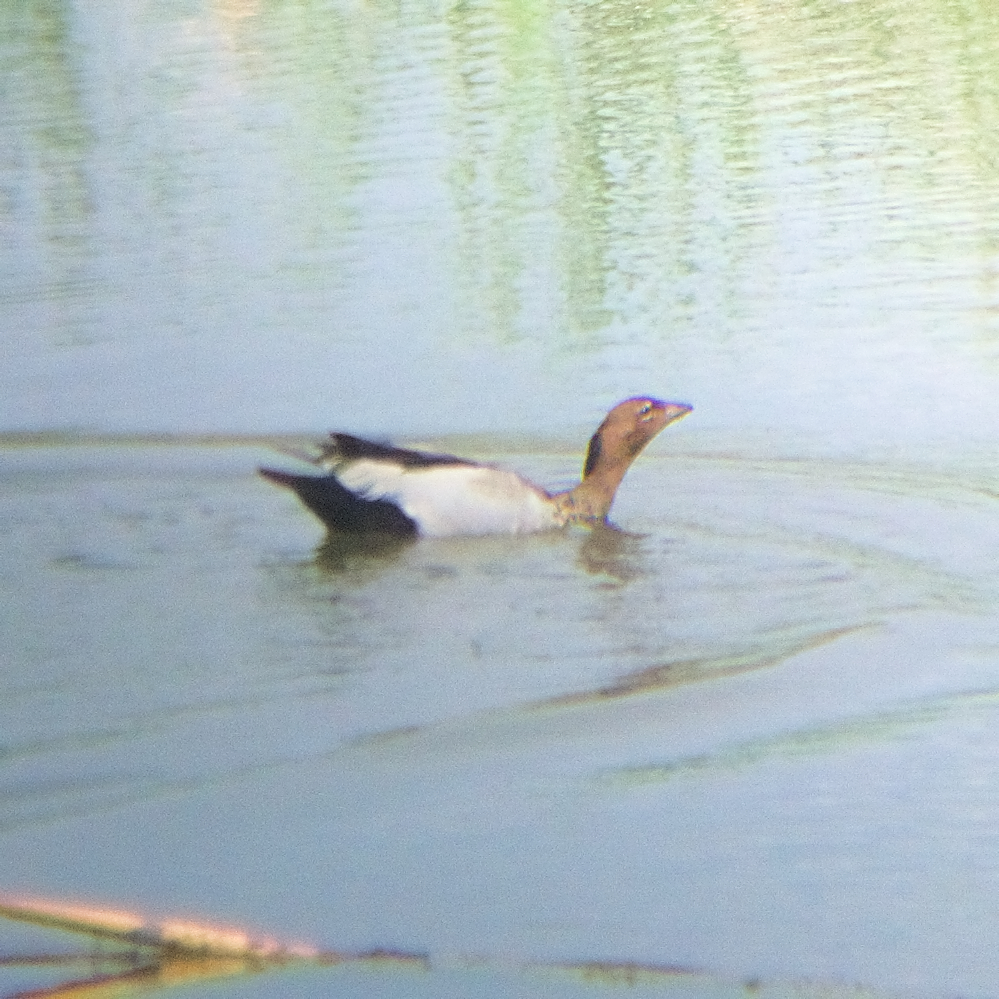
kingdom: Animalia
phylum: Chordata
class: Aves
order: Anseriformes
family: Anatidae
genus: Chenonetta
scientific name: Chenonetta jubata
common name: Maned duck
